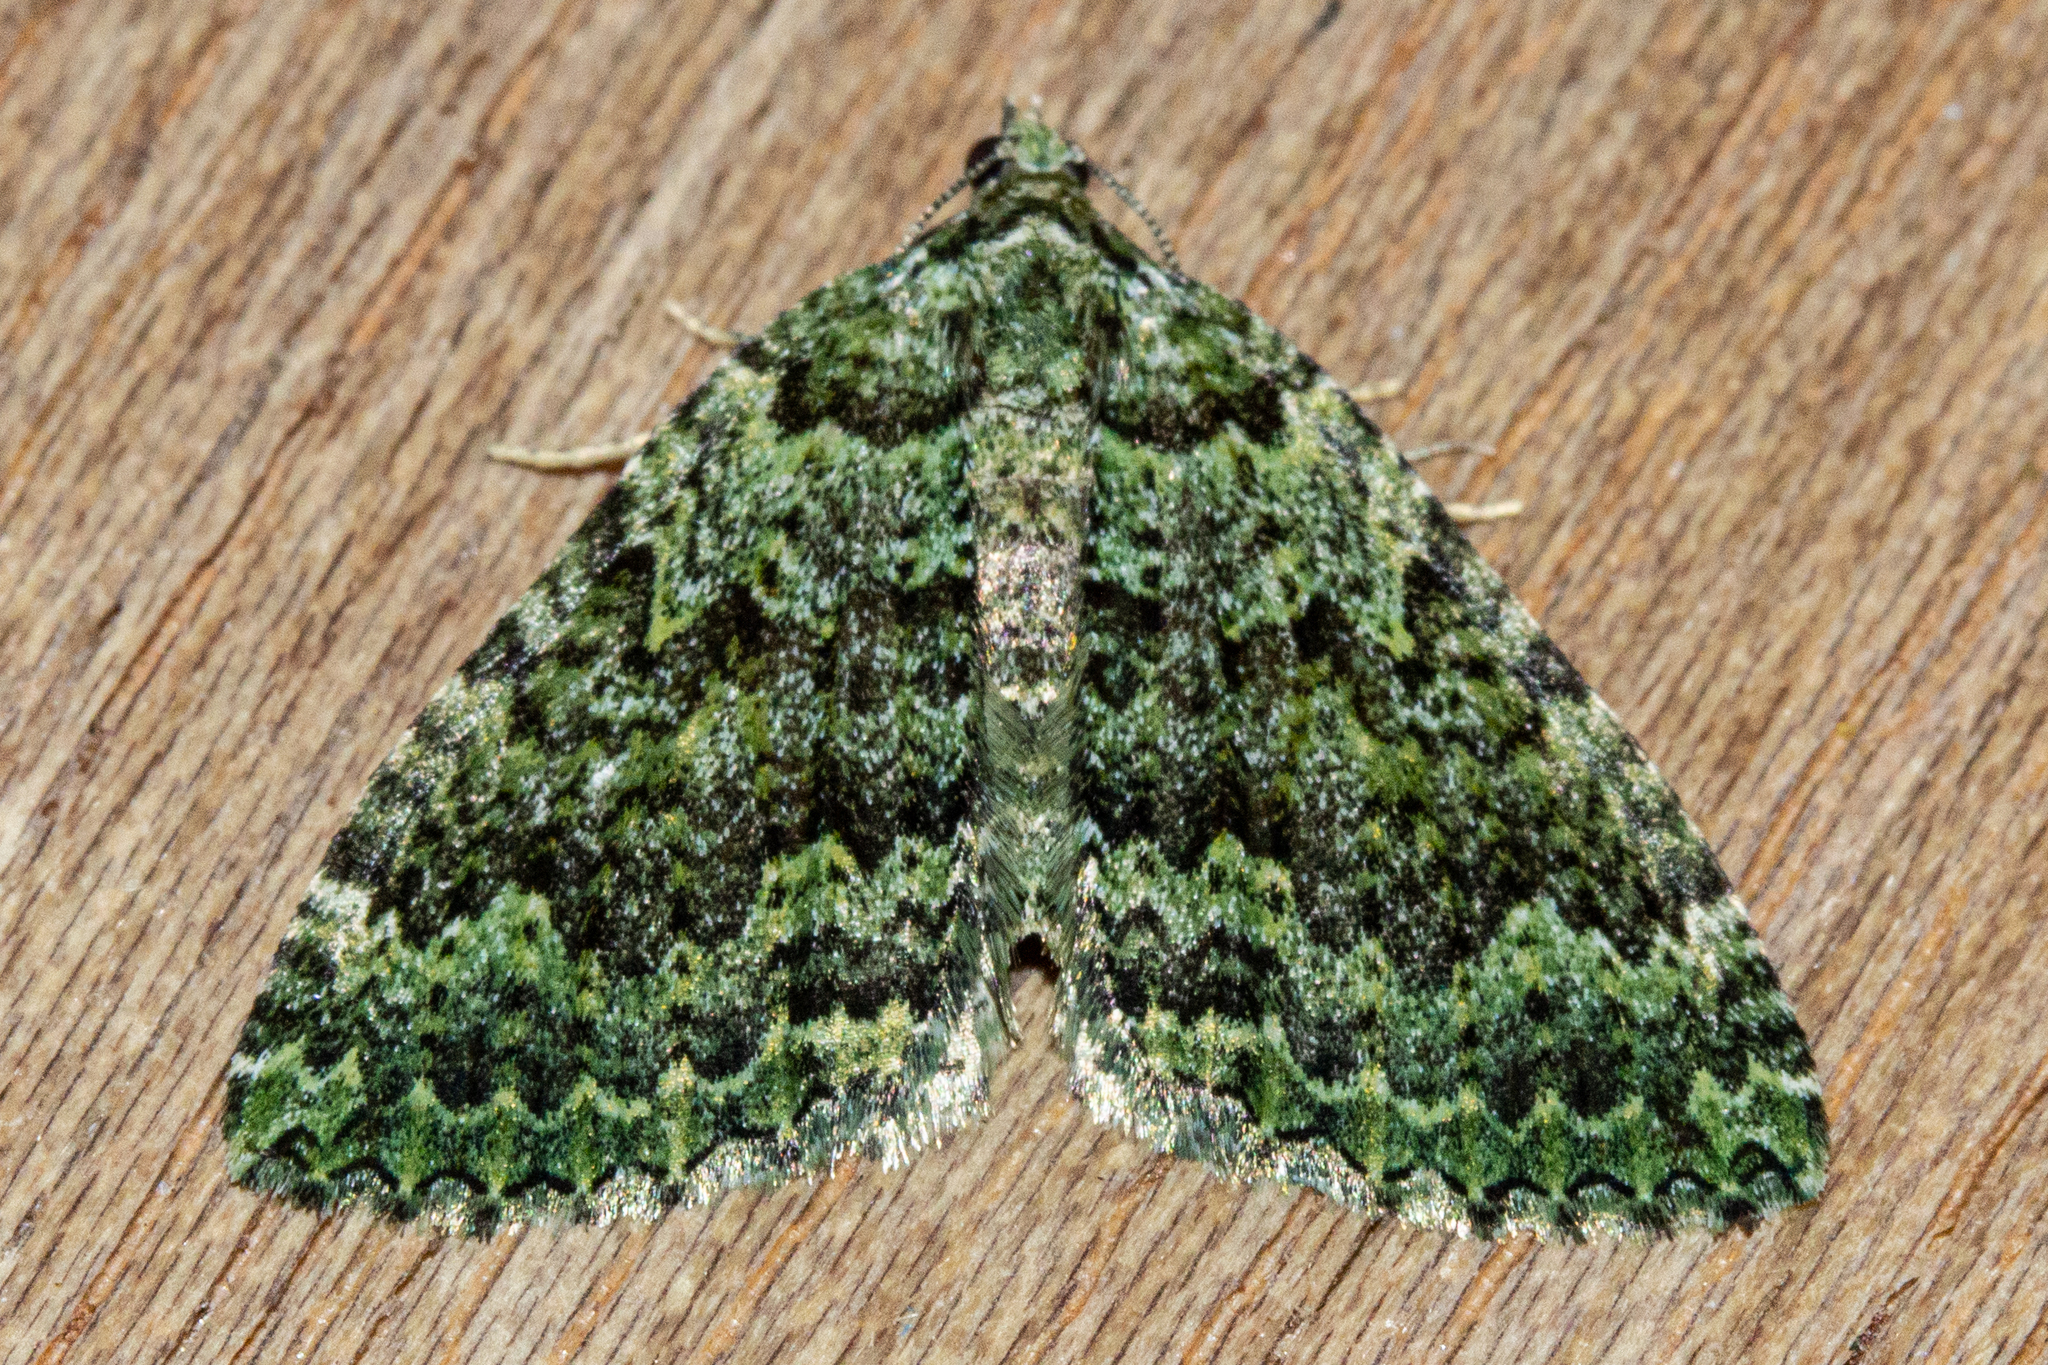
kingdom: Animalia
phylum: Arthropoda
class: Insecta
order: Lepidoptera
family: Geometridae
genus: Austrocidaria
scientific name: Austrocidaria callichlora
